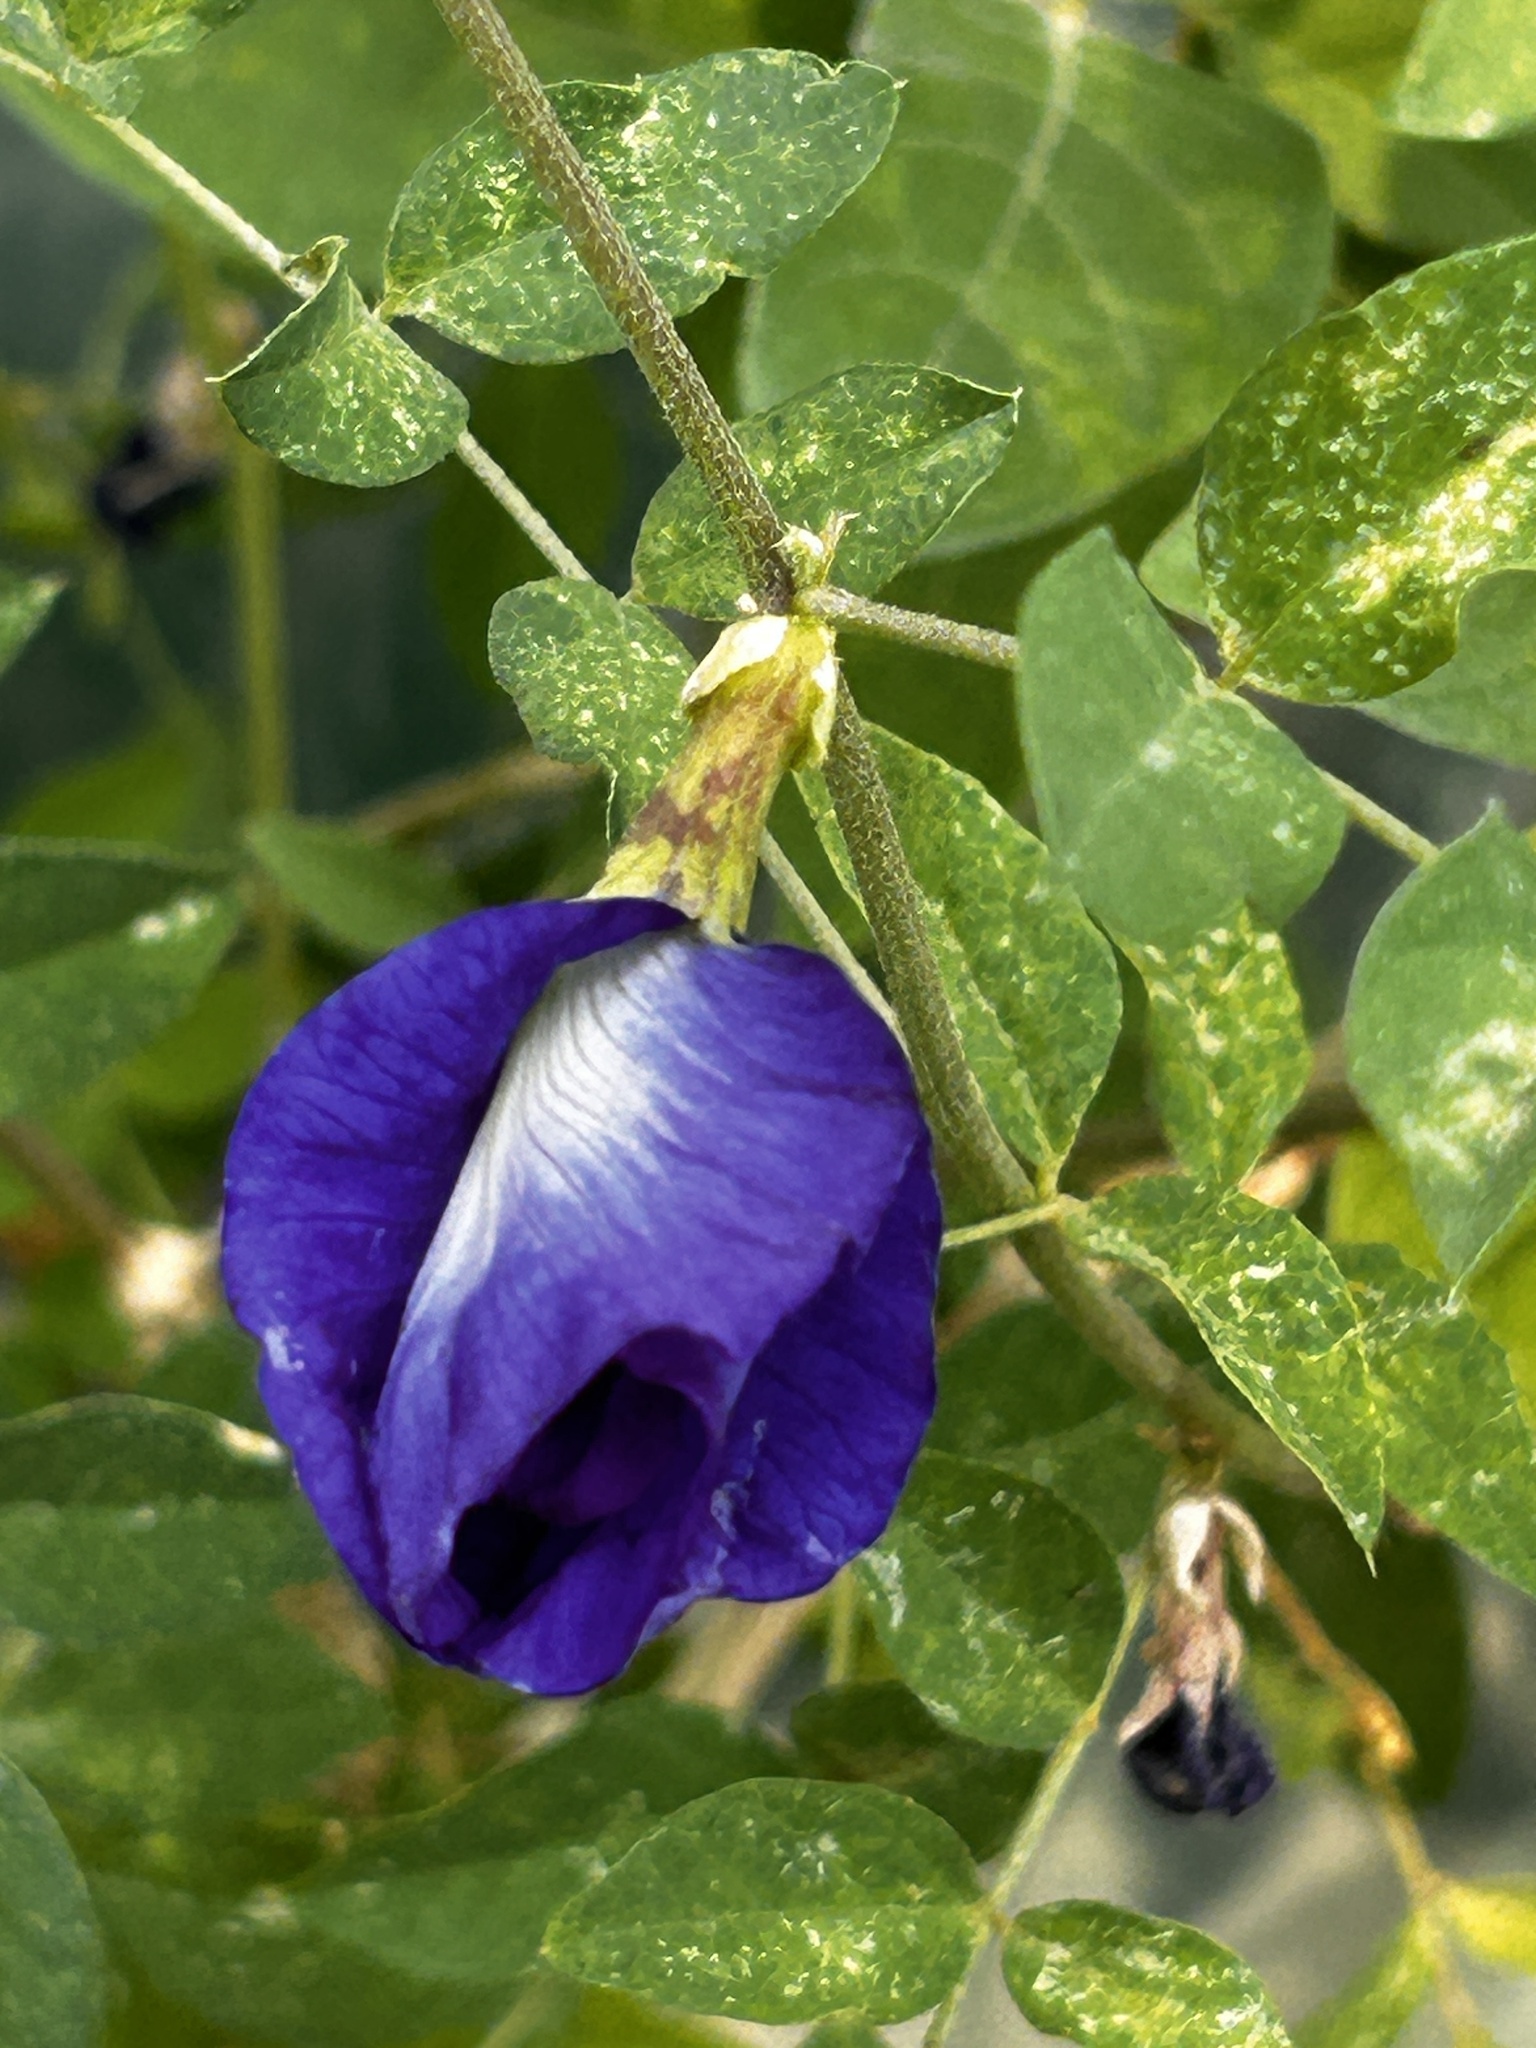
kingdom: Plantae
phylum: Tracheophyta
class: Magnoliopsida
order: Fabales
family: Fabaceae
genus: Clitoria
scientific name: Clitoria ternatea
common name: Asian pigeonwings
